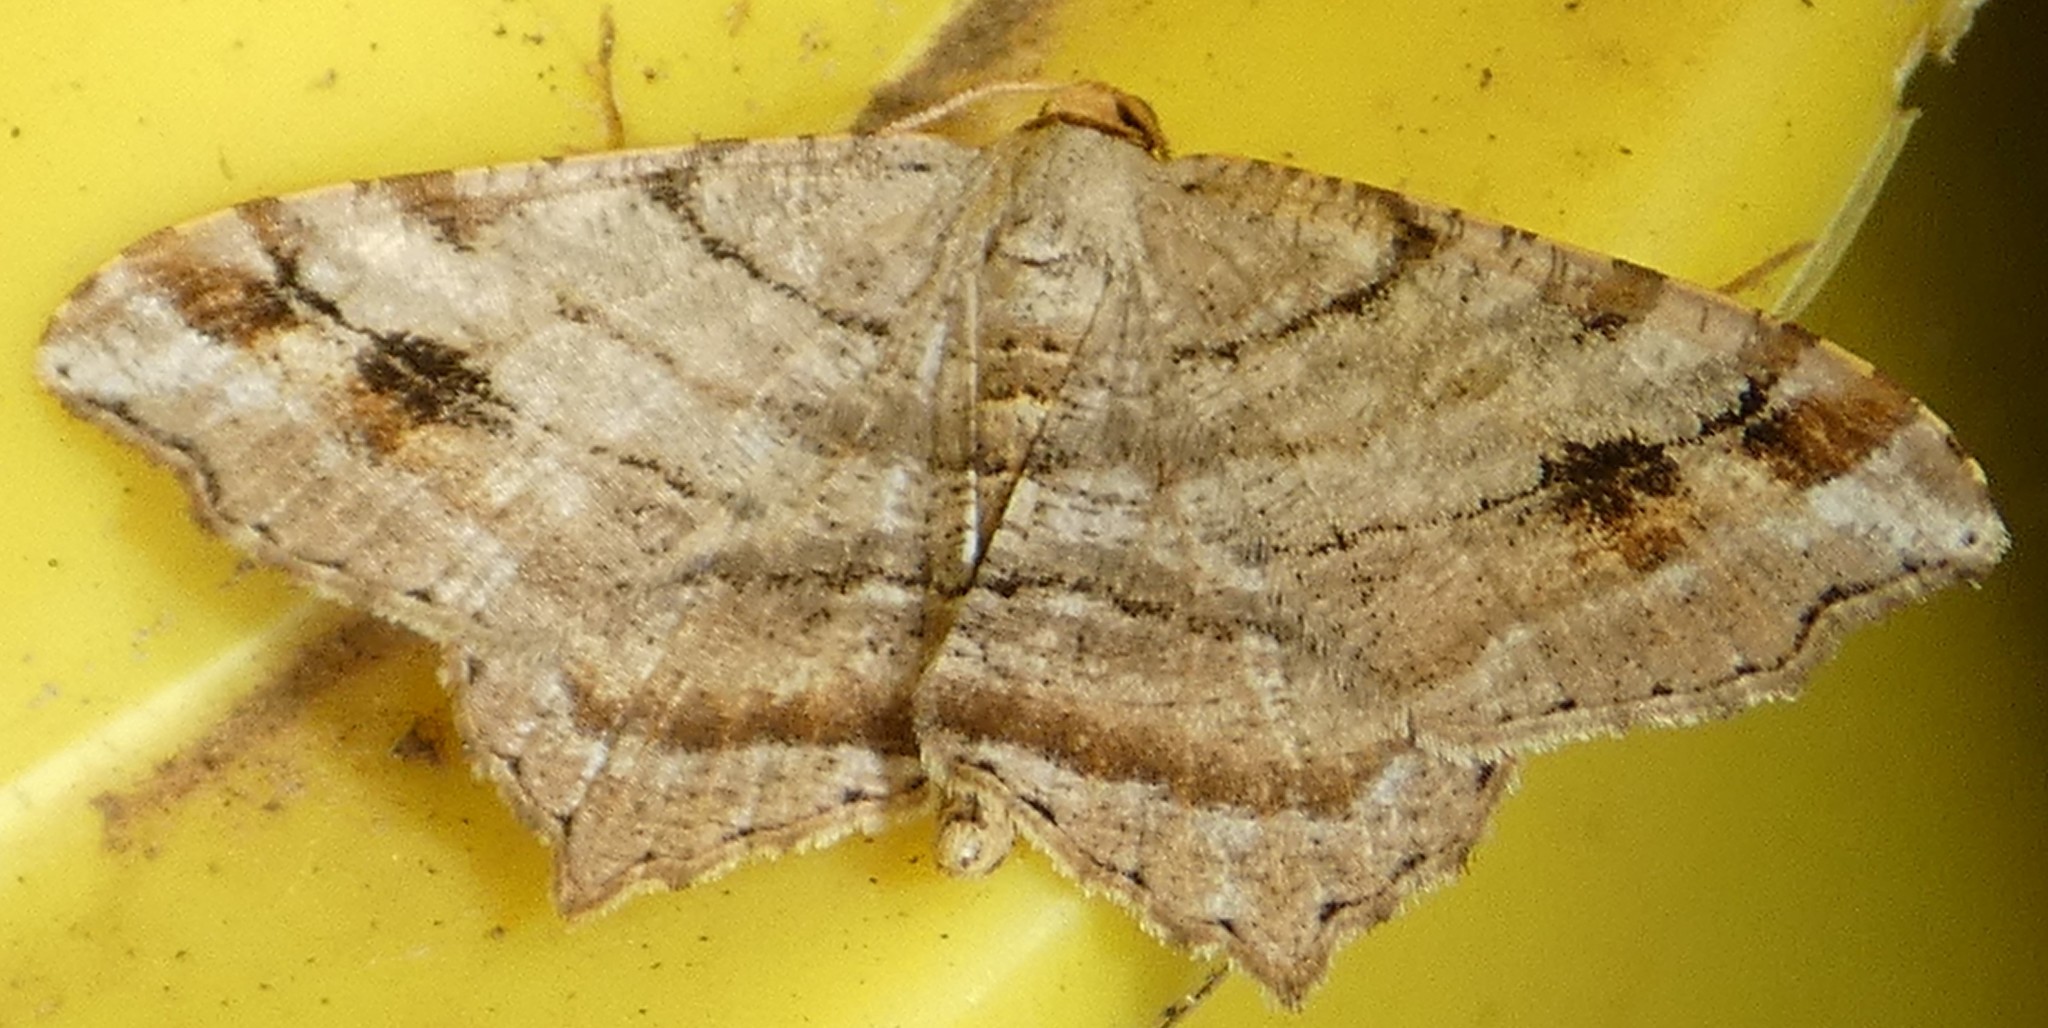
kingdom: Animalia
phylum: Arthropoda
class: Insecta
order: Lepidoptera
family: Geometridae
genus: Macaria
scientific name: Macaria multilineata
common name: Many-lined angle
